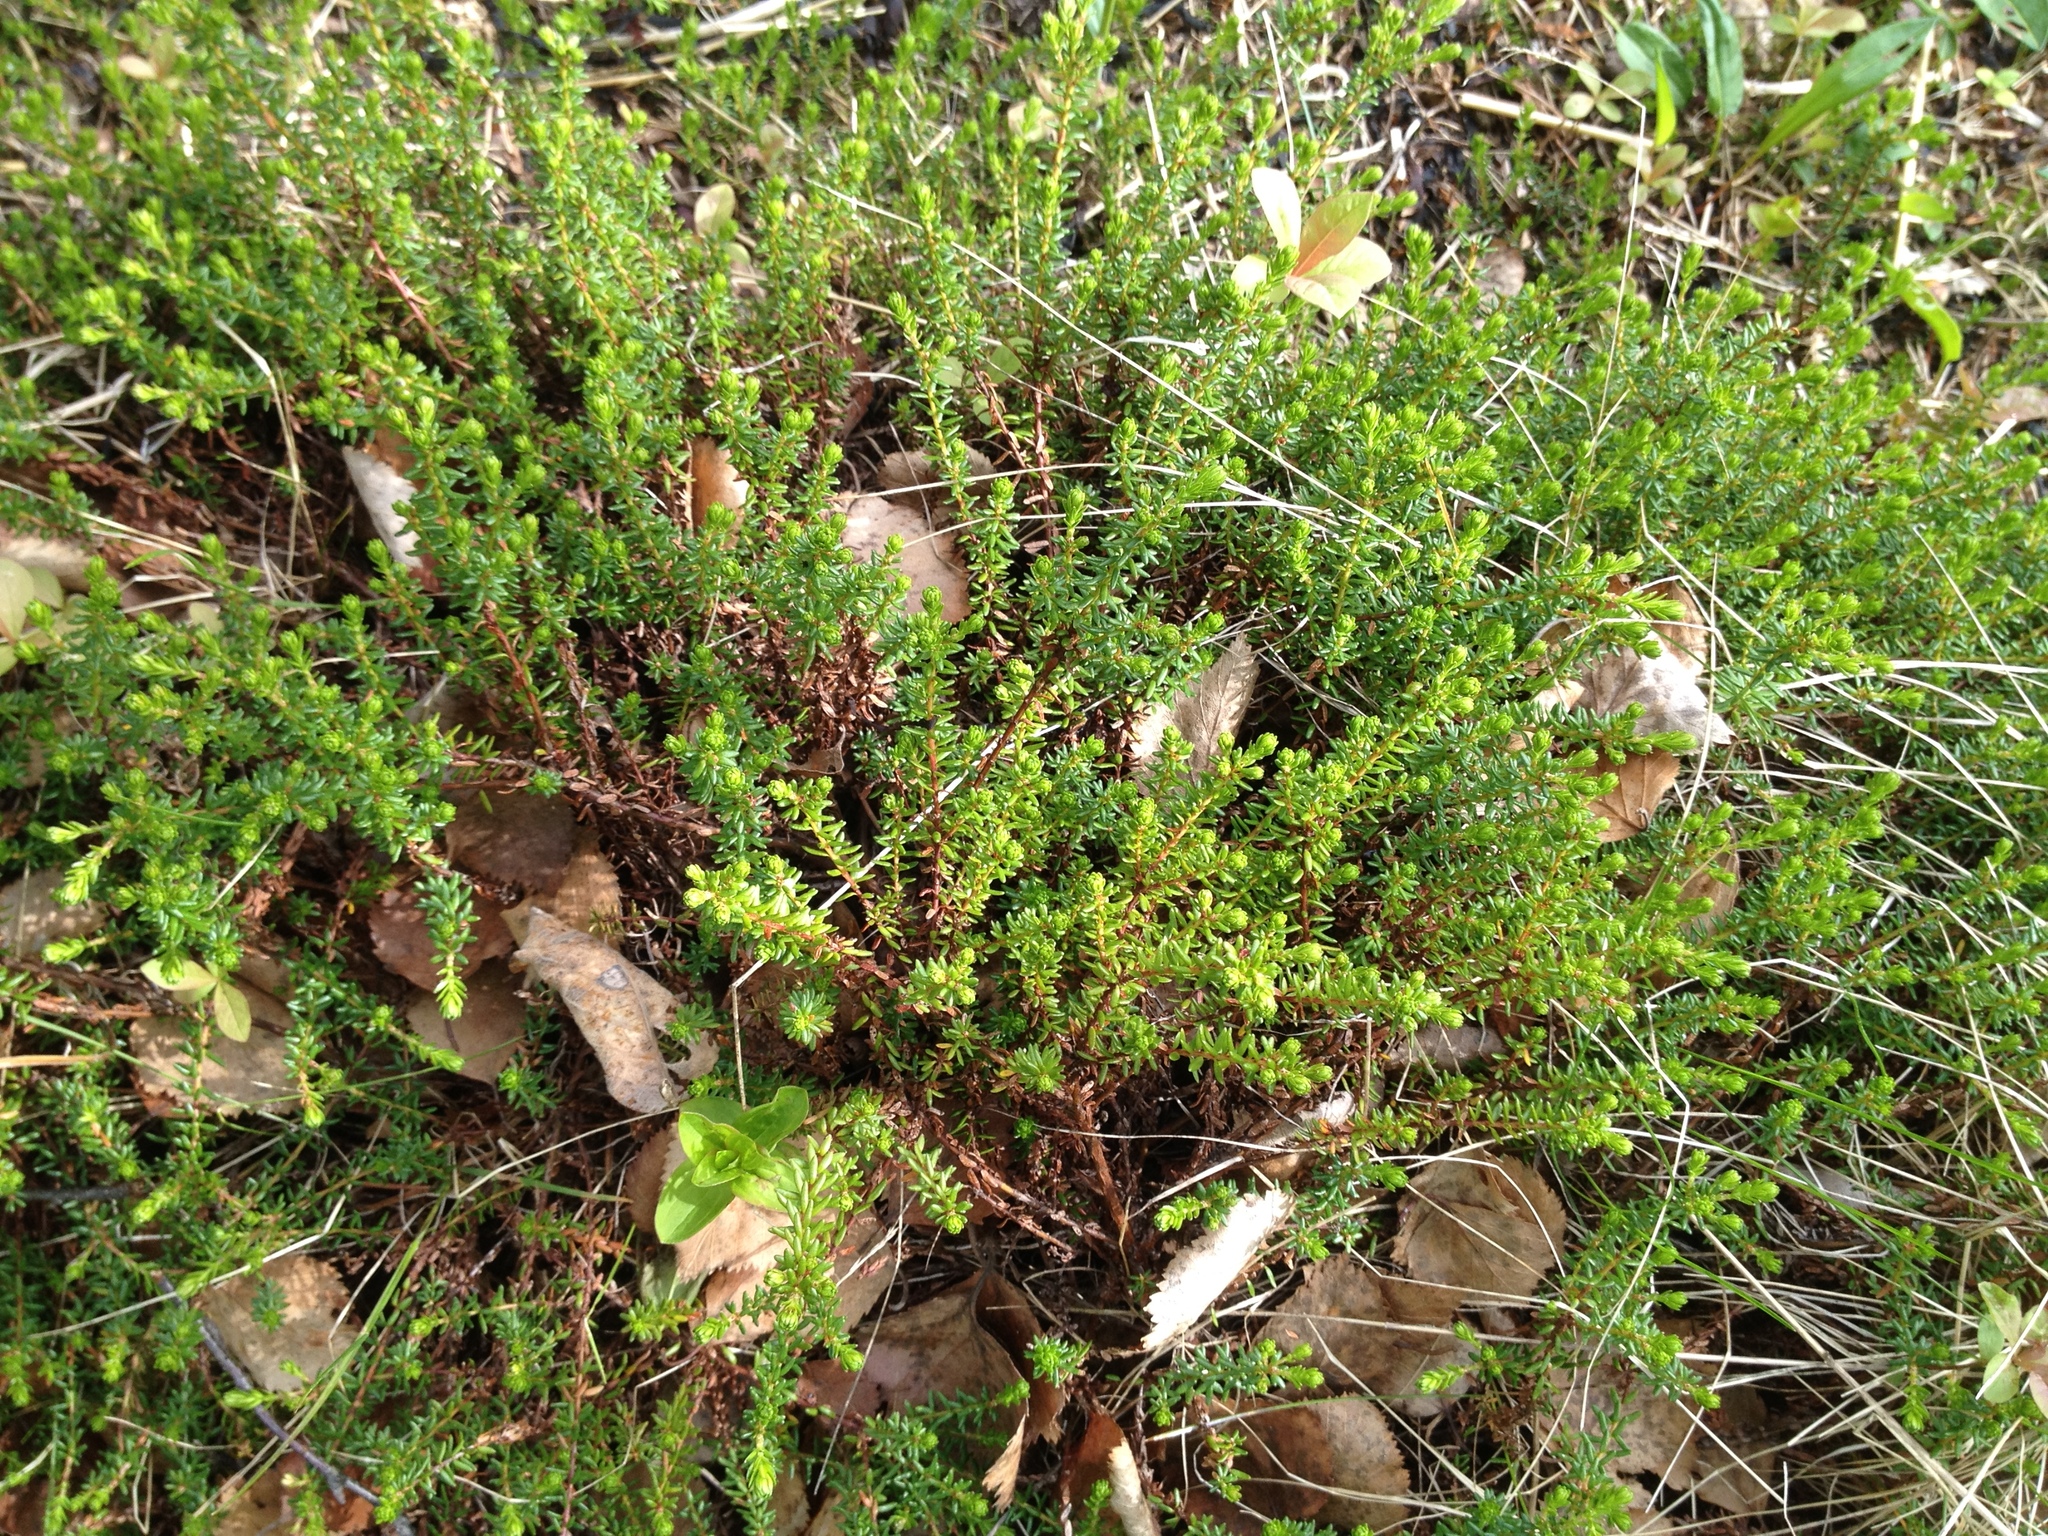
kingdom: Plantae
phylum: Tracheophyta
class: Magnoliopsida
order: Ericales
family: Ericaceae
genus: Empetrum
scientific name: Empetrum nigrum
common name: Black crowberry
